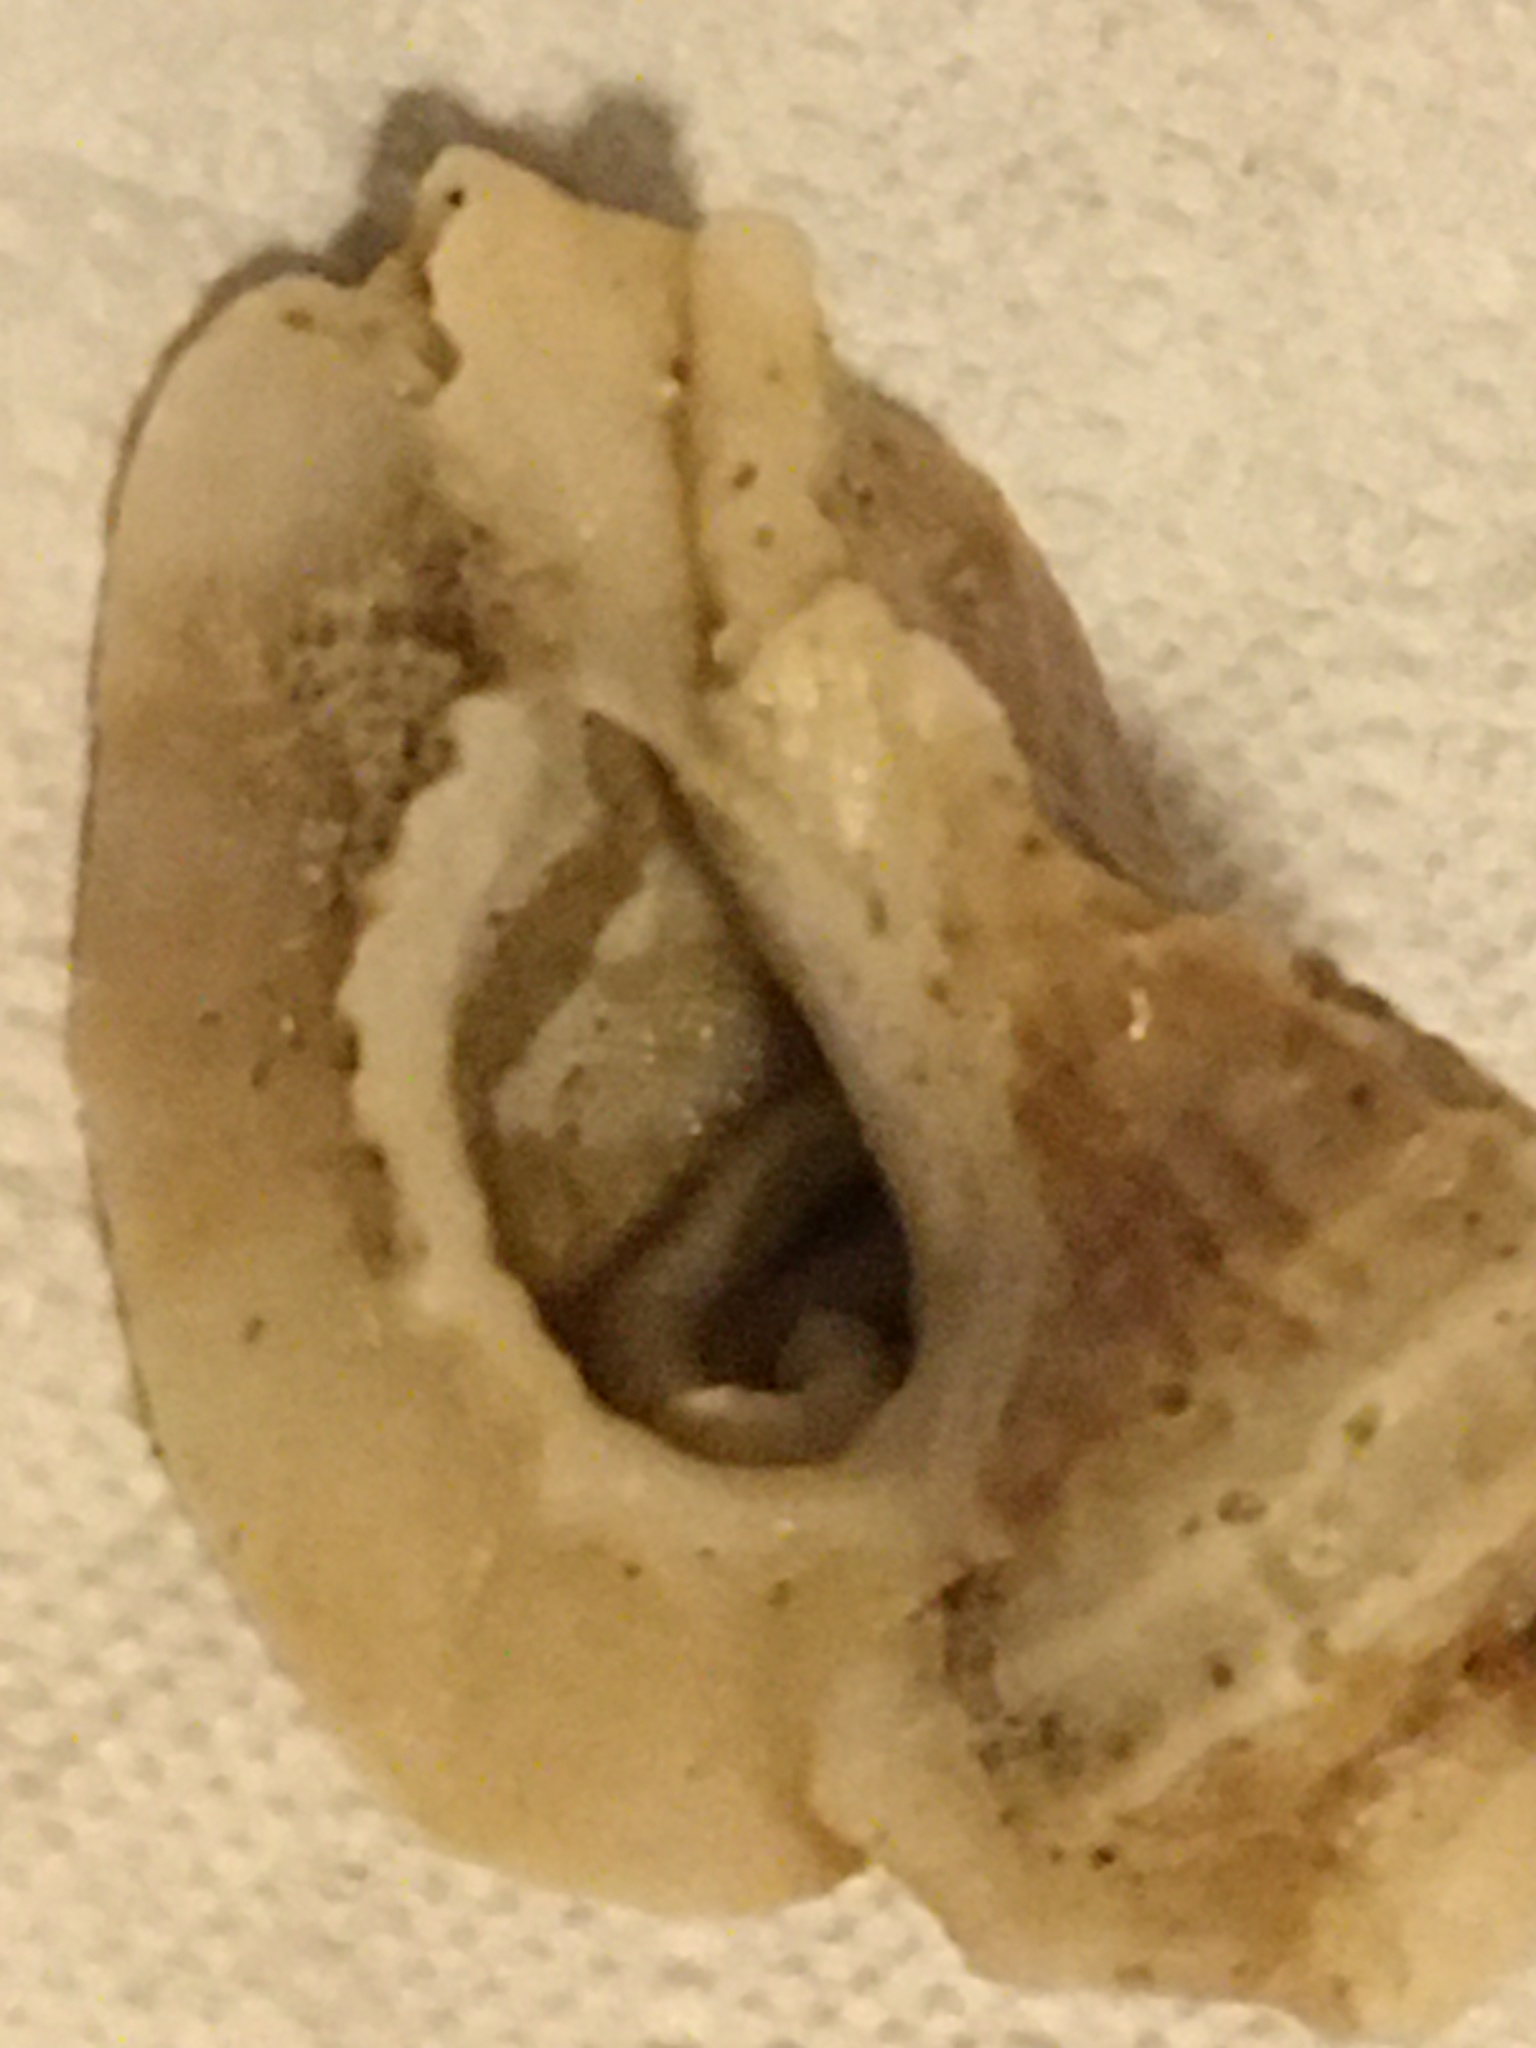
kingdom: Animalia
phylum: Mollusca
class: Gastropoda
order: Neogastropoda
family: Muricidae
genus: Ceratostoma
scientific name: Ceratostoma foliatum
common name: Foliate thorn purpura
